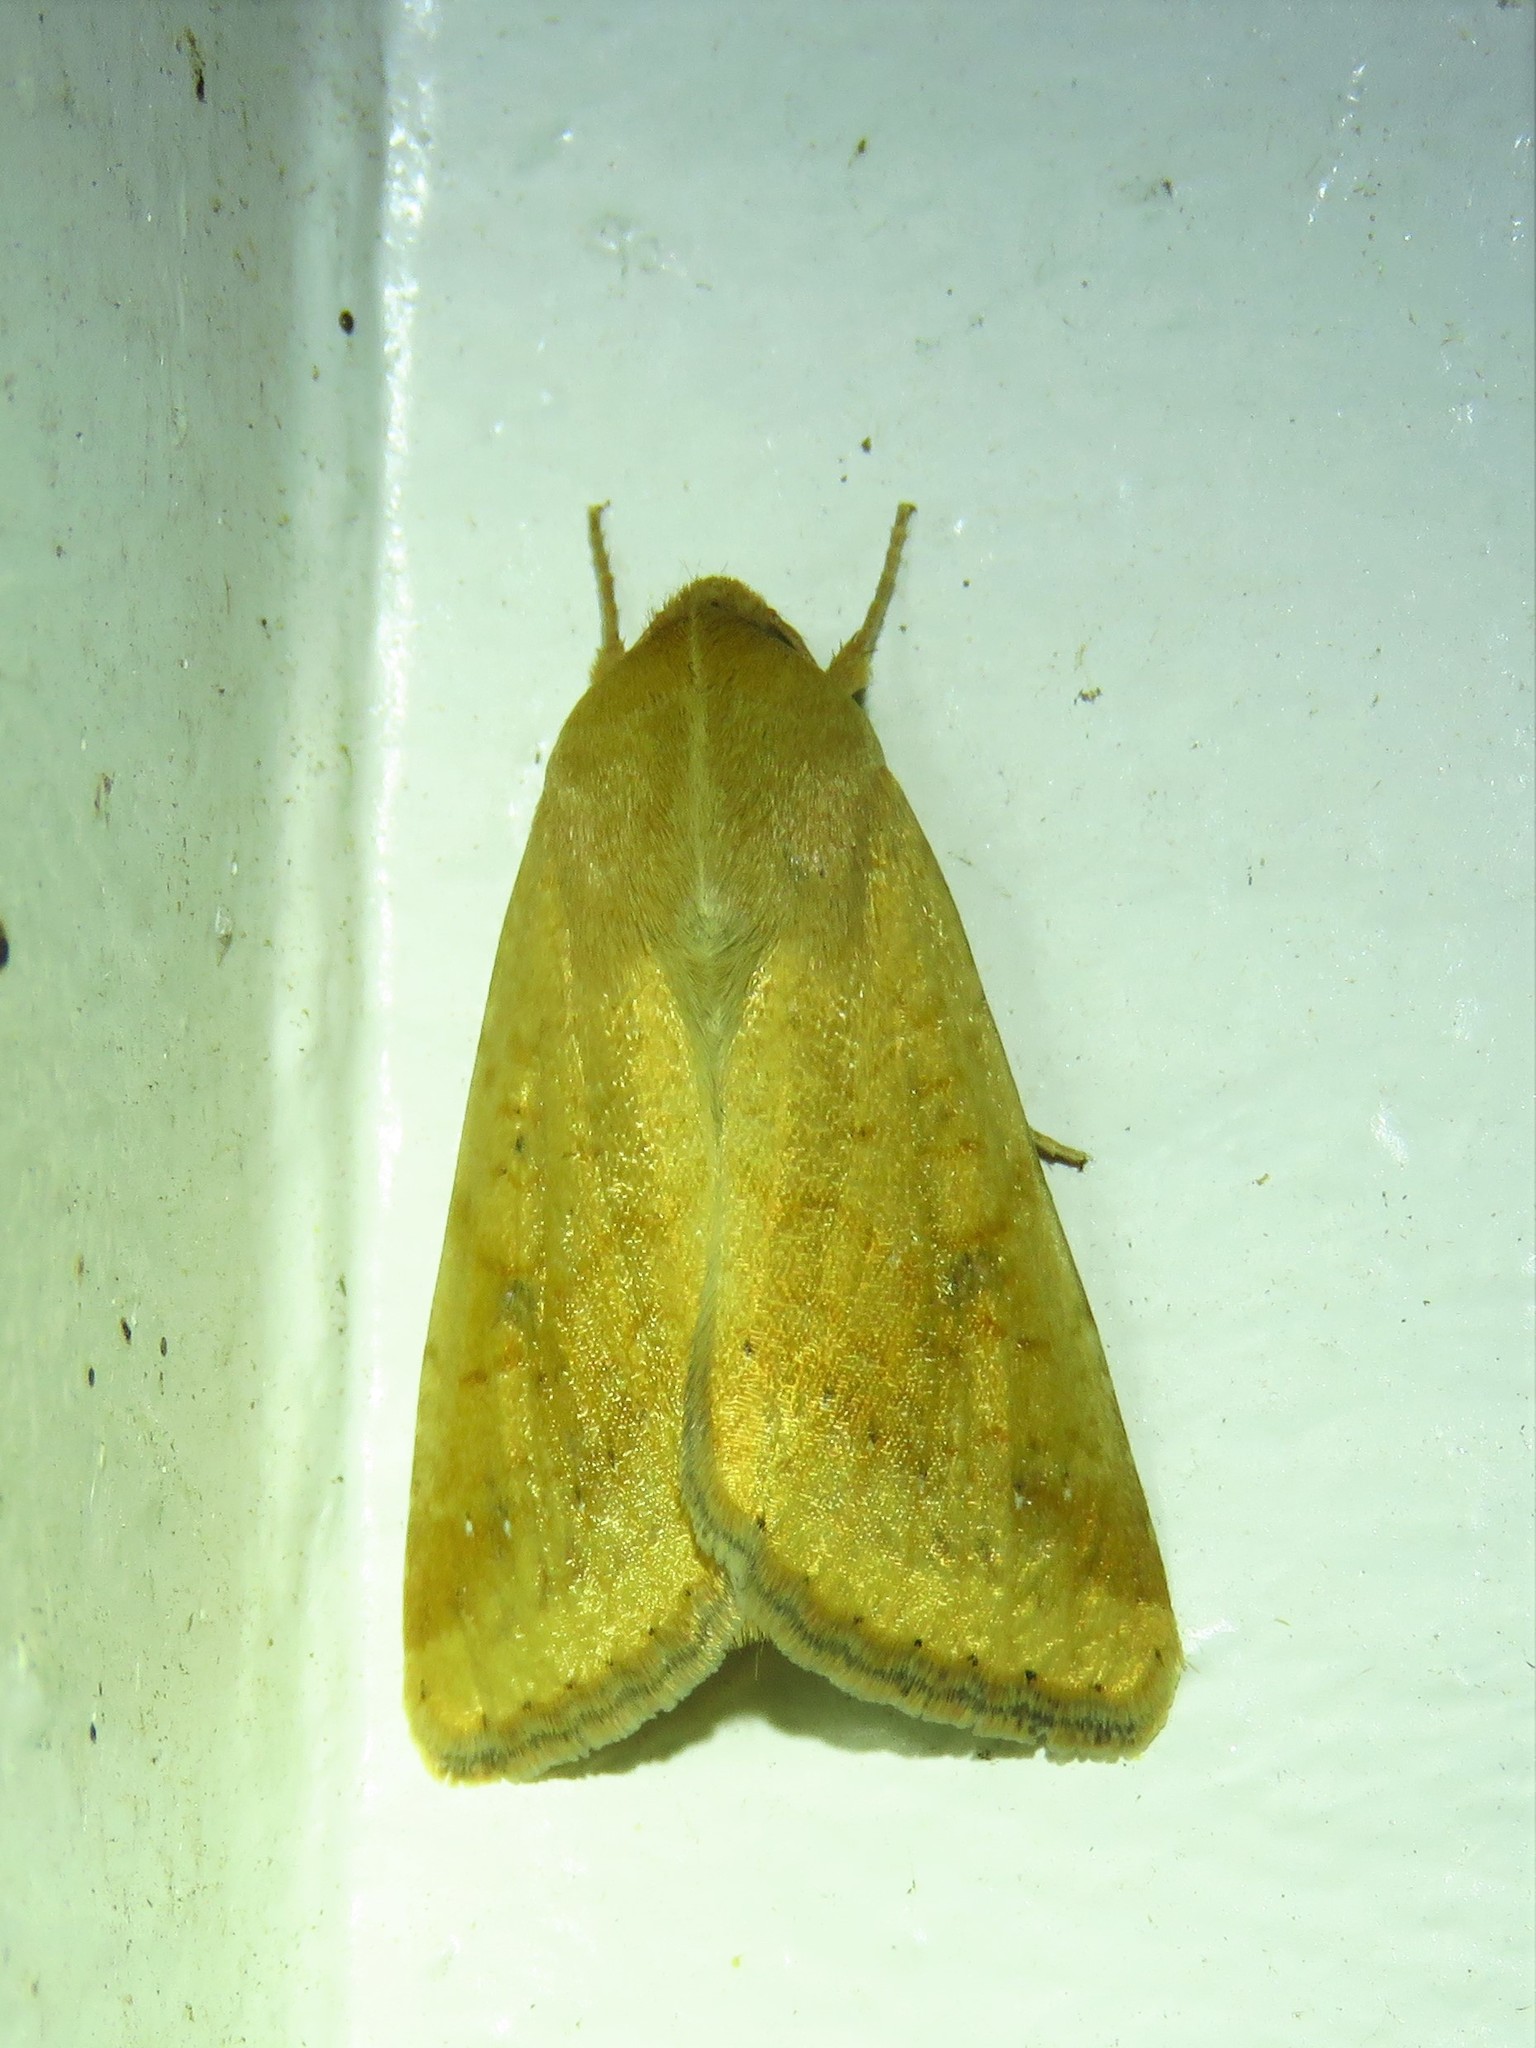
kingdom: Animalia
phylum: Arthropoda
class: Insecta
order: Lepidoptera
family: Noctuidae
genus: Helicoverpa
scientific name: Helicoverpa zea
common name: Bollworm
